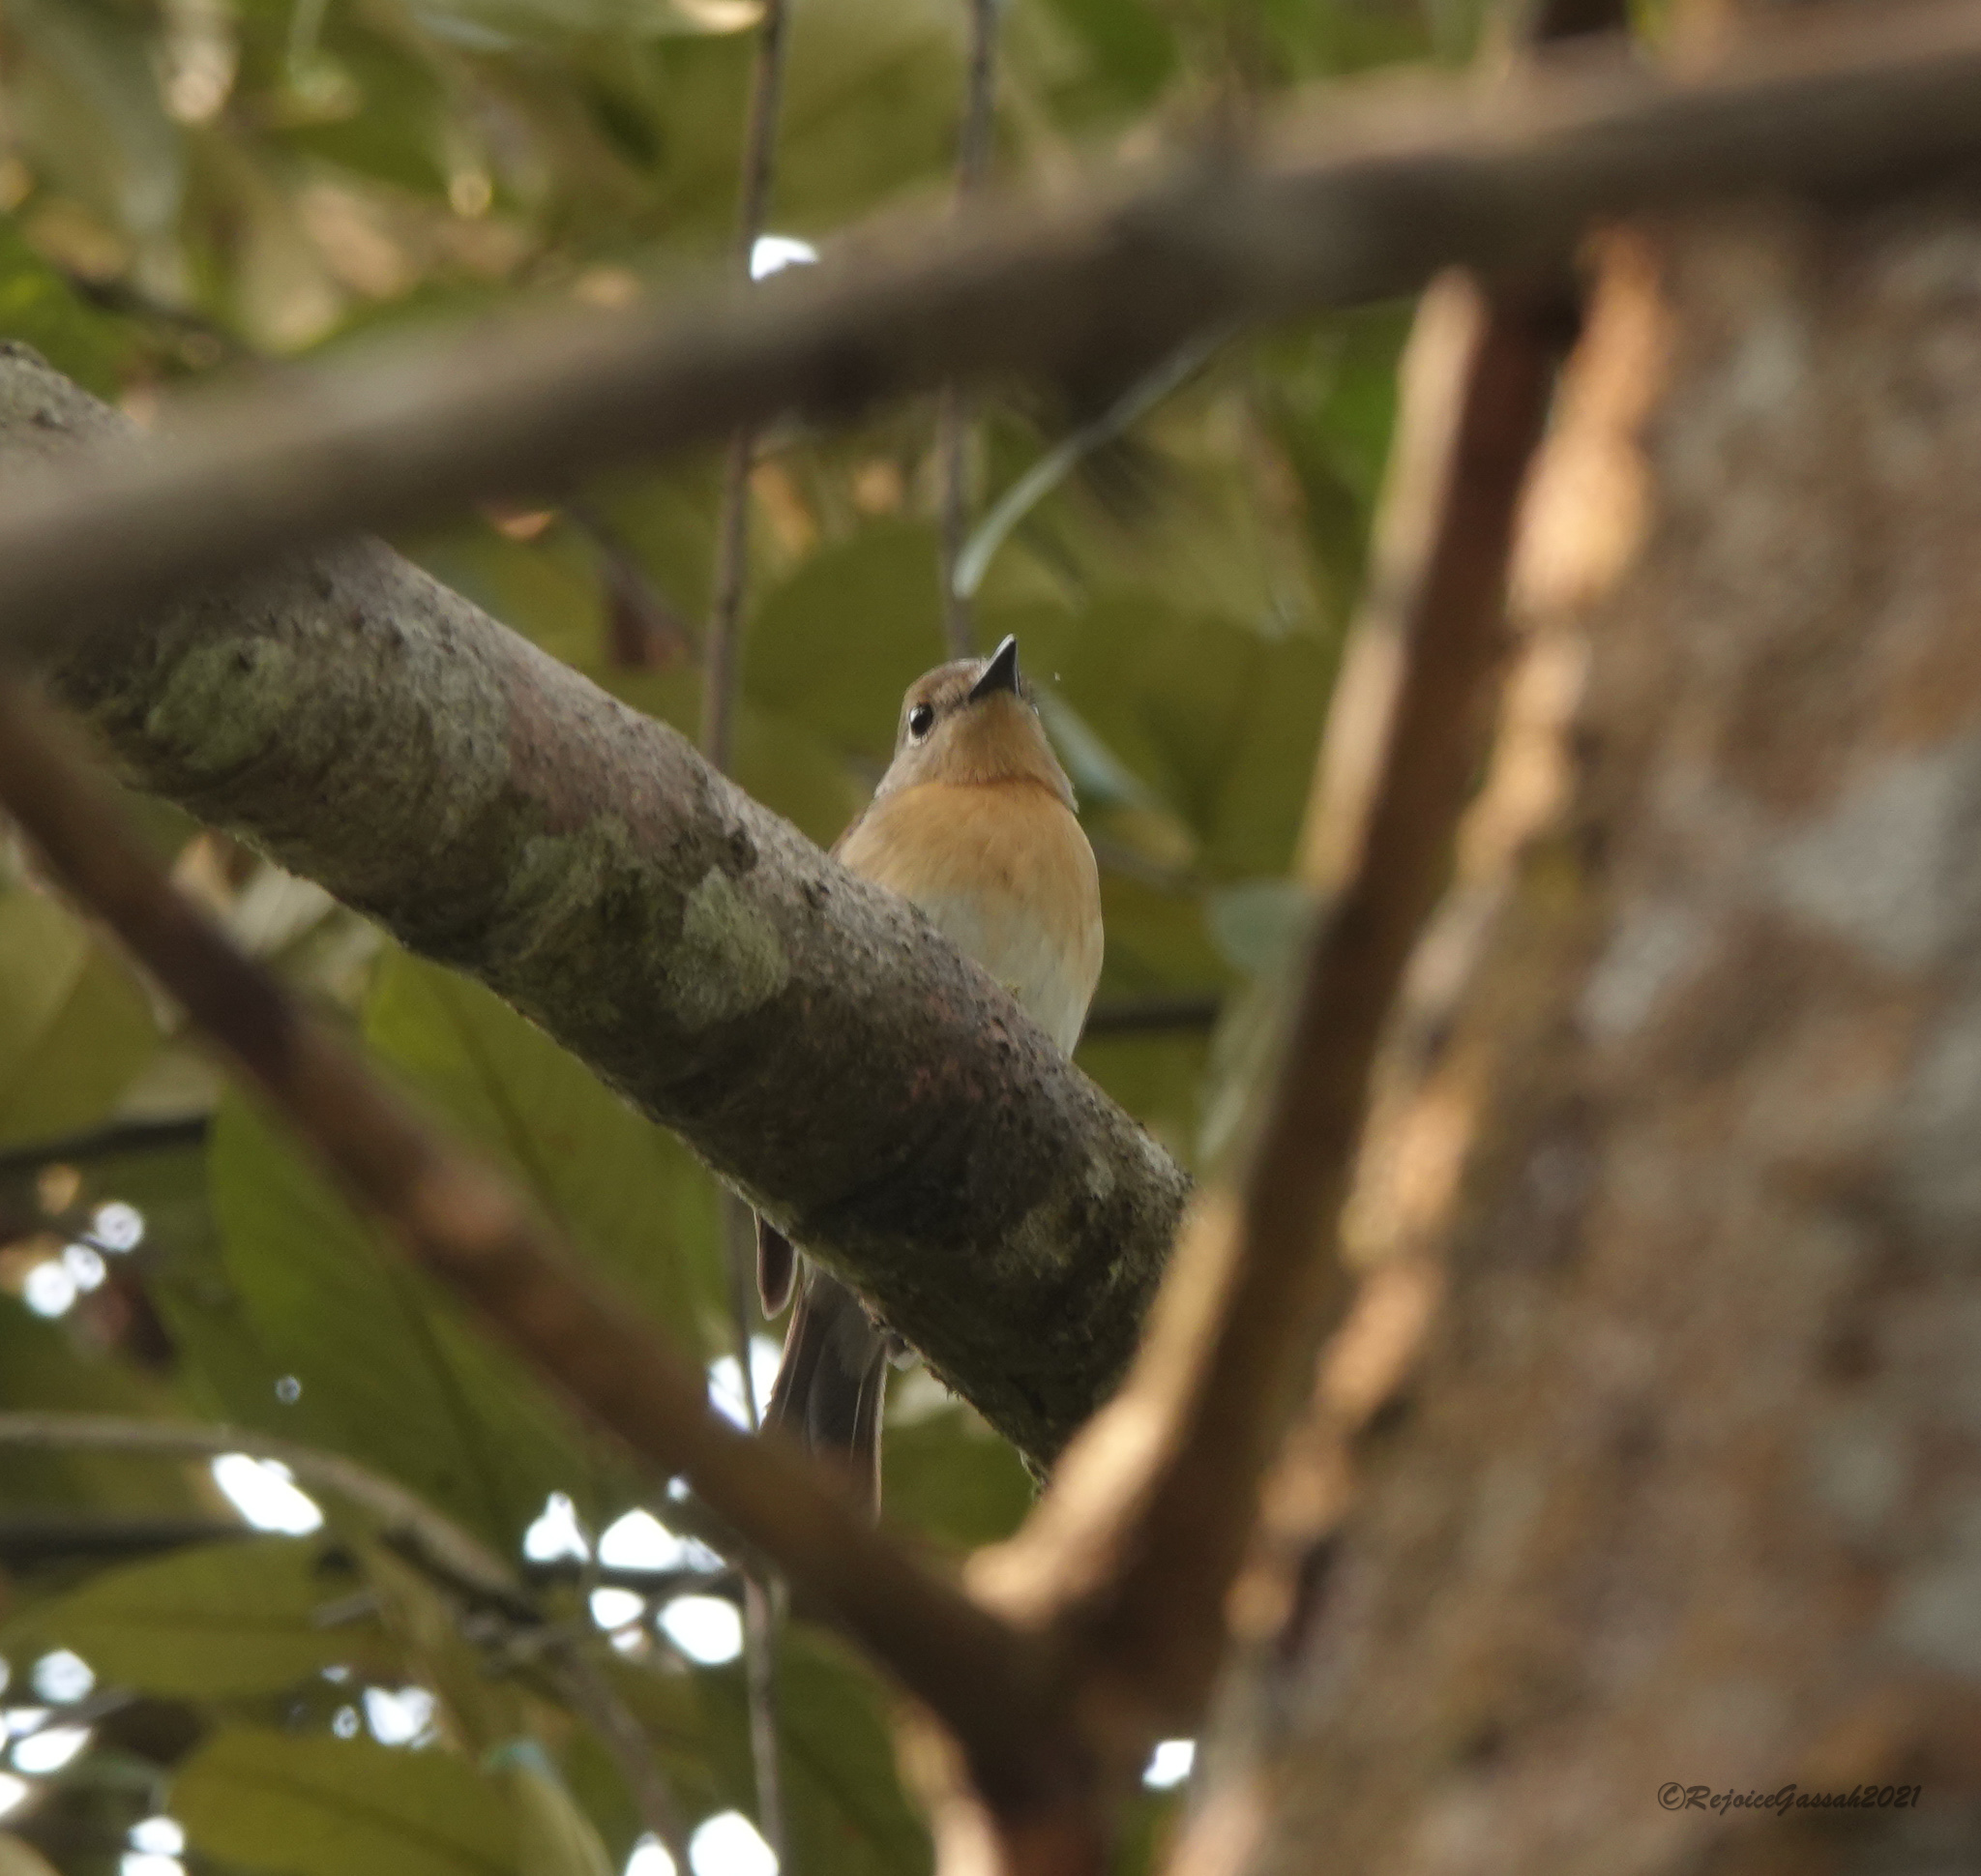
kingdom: Animalia
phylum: Chordata
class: Aves
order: Passeriformes
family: Muscicapidae
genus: Cyornis
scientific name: Cyornis rubeculoides
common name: Blue-throated blue flycatcher
